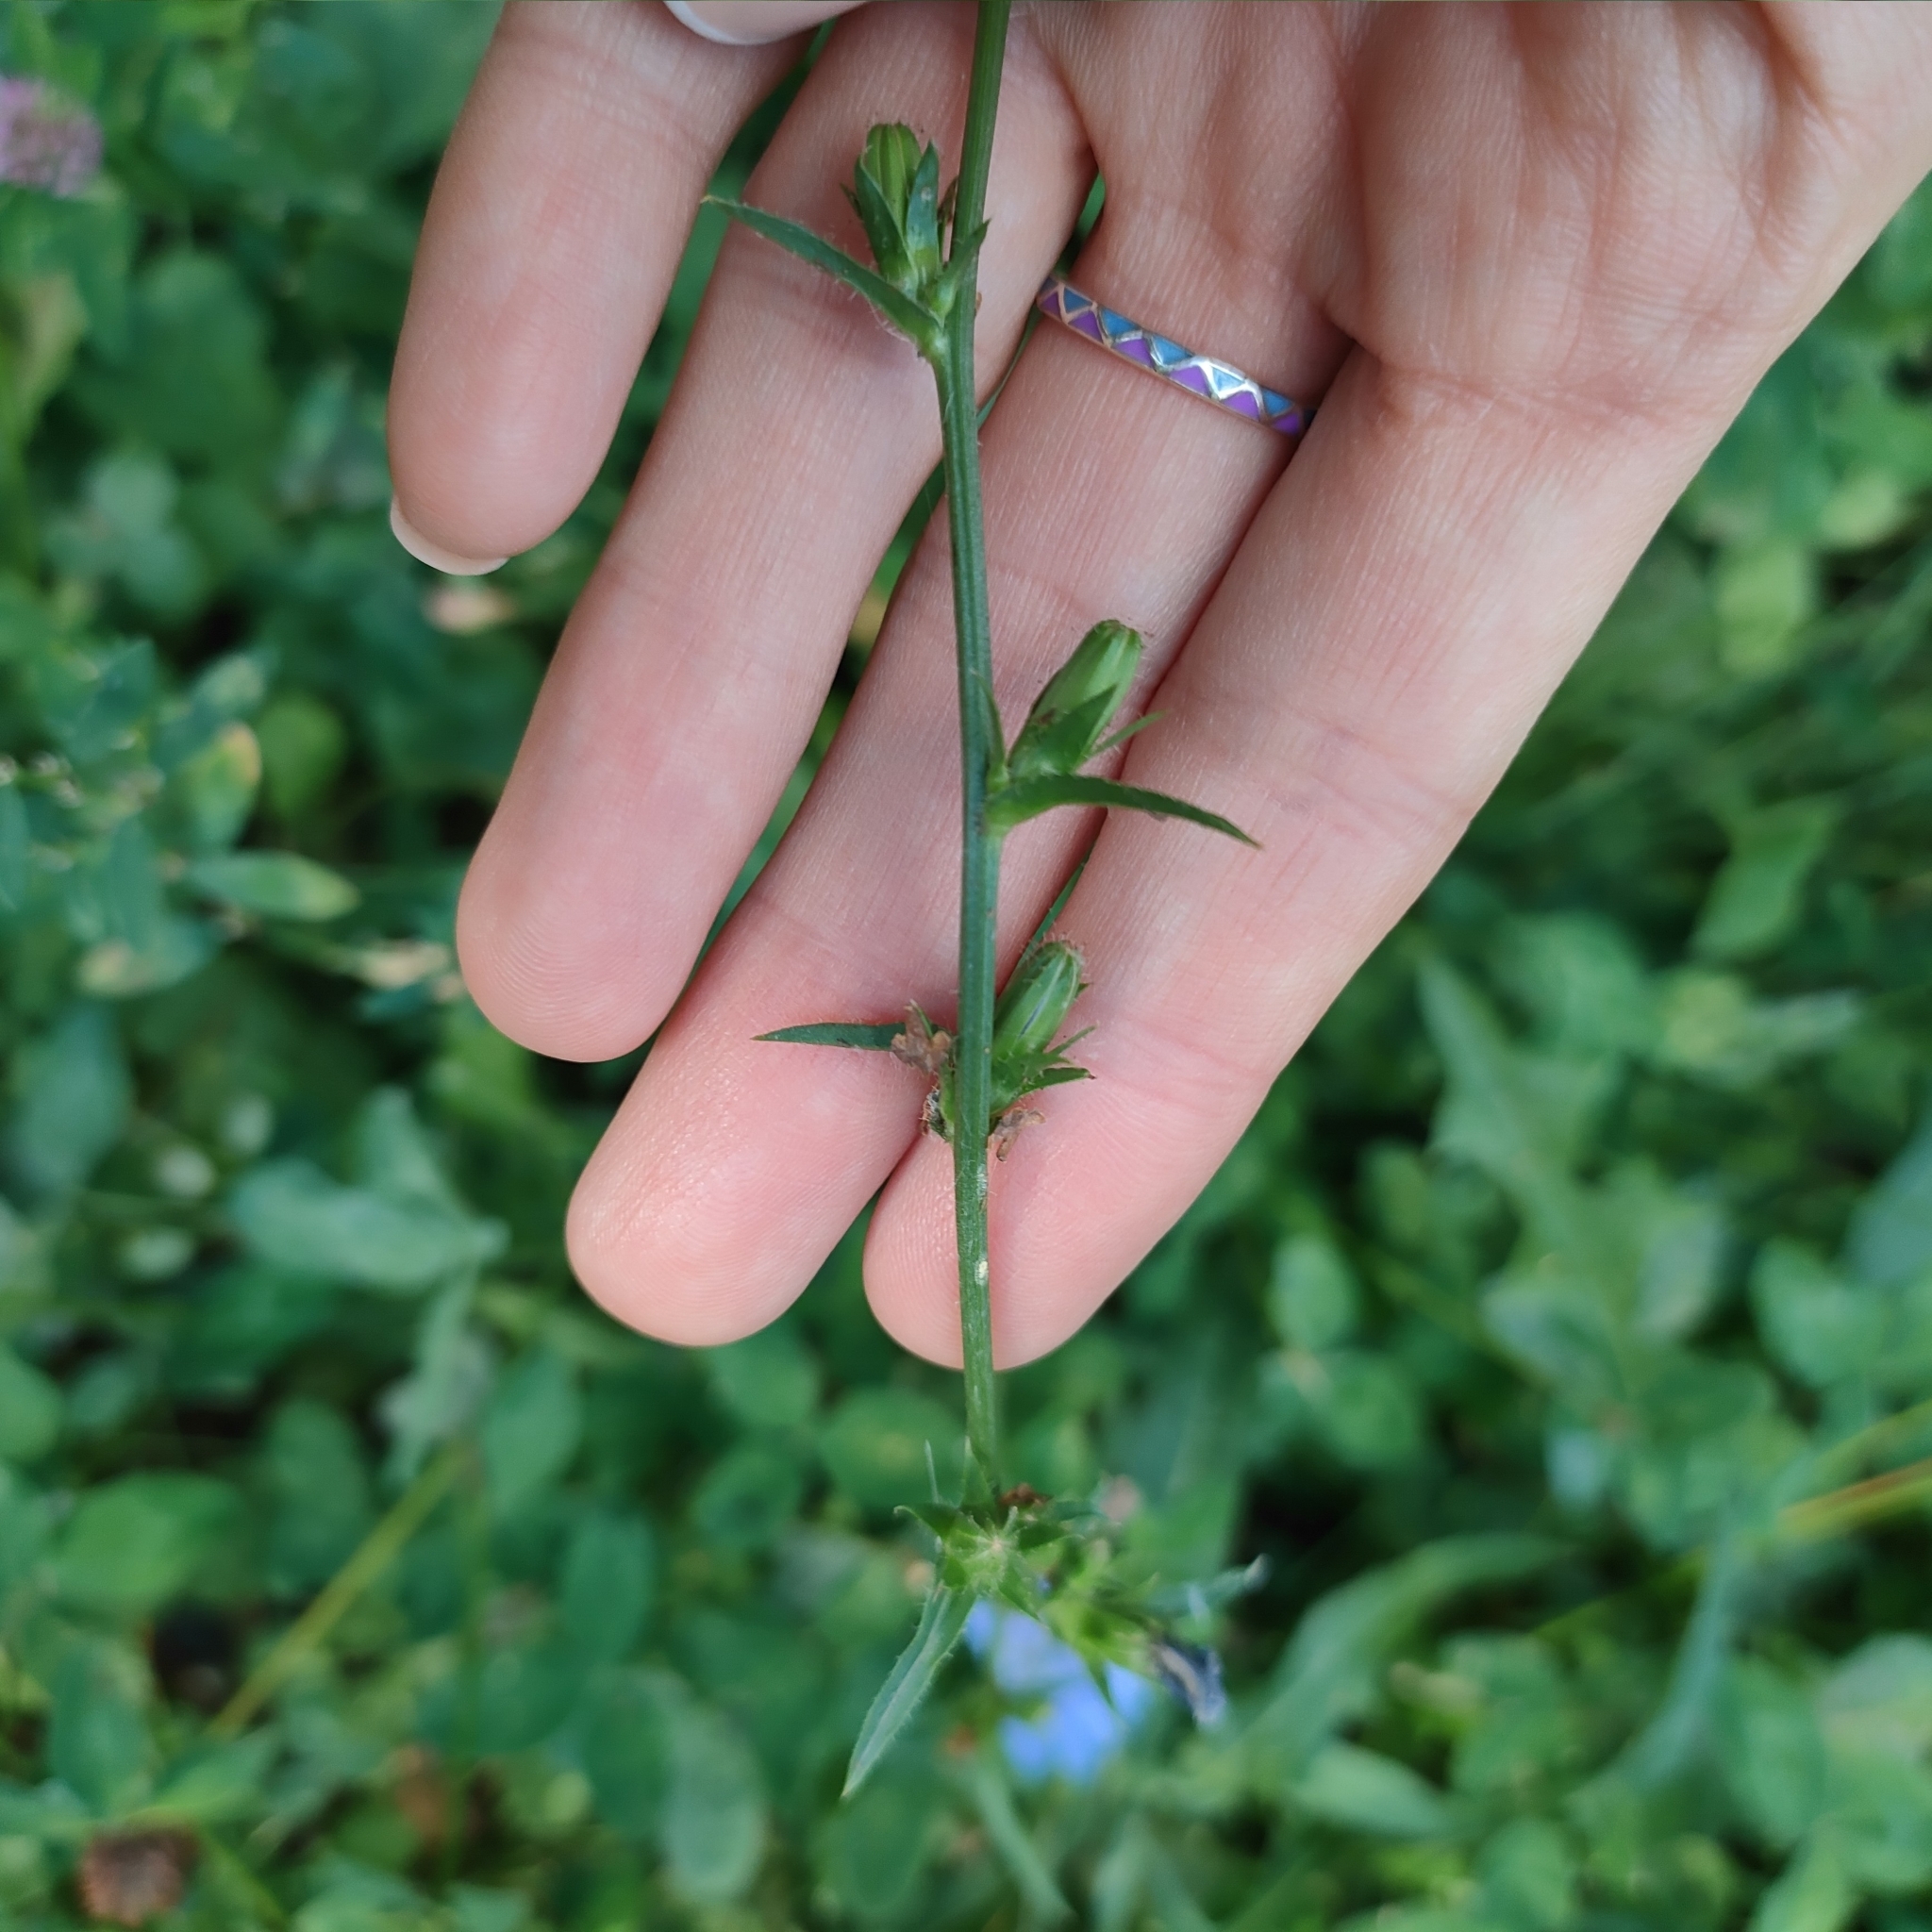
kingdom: Plantae
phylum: Tracheophyta
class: Magnoliopsida
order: Asterales
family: Asteraceae
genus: Cichorium
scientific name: Cichorium intybus
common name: Chicory
